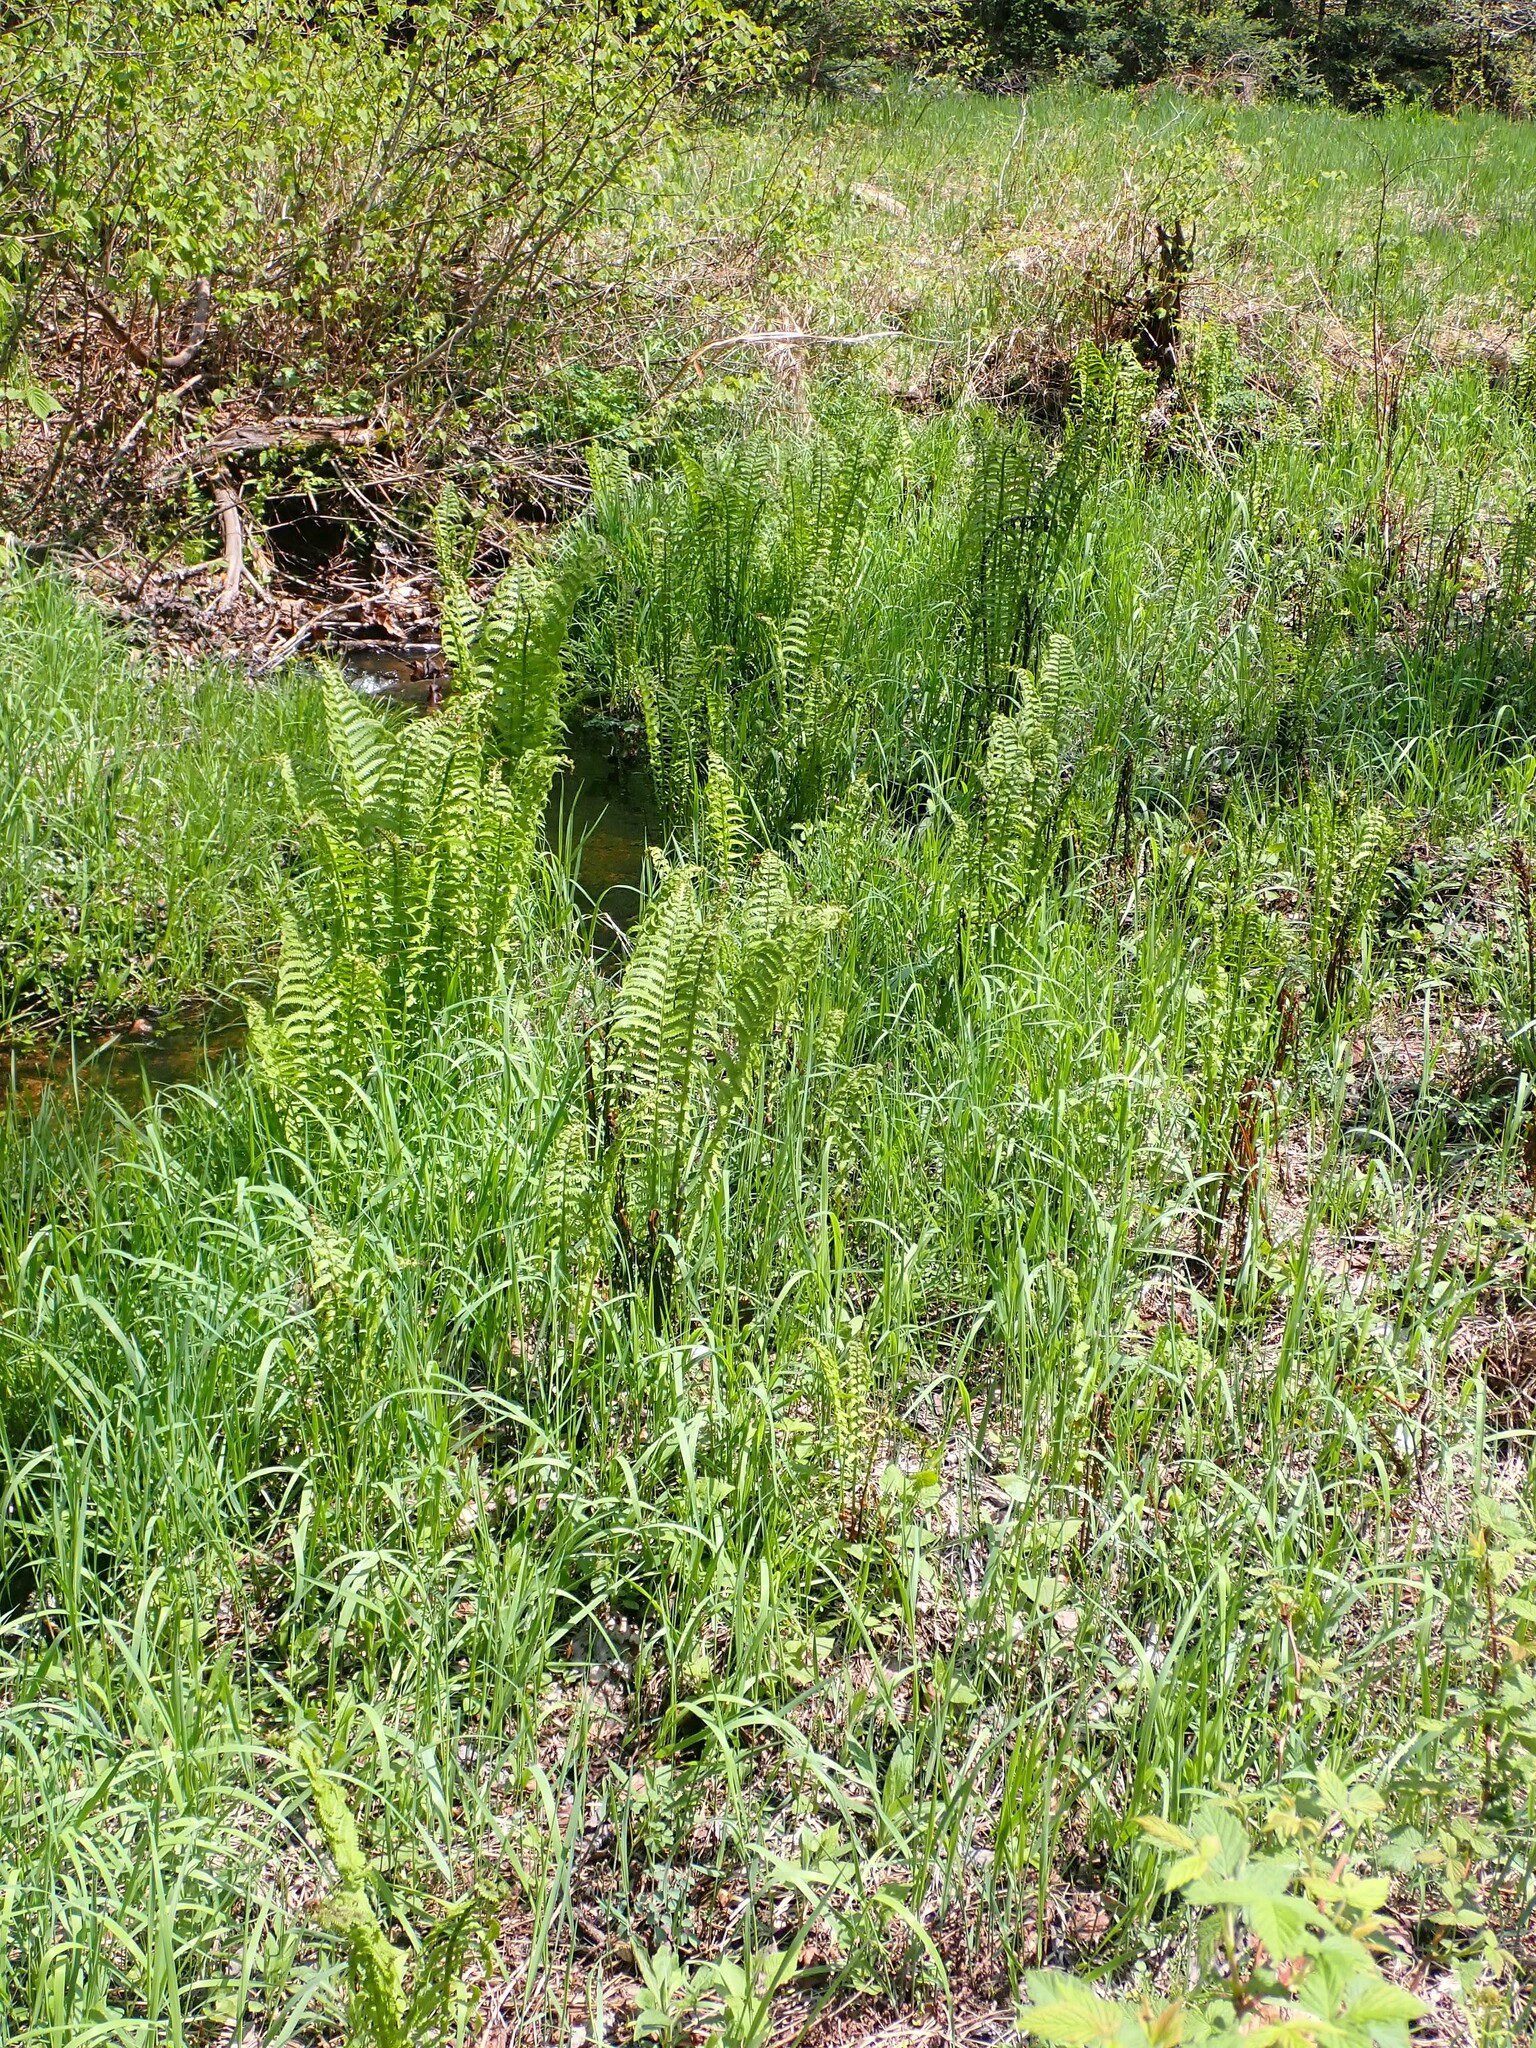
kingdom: Plantae
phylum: Tracheophyta
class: Polypodiopsida
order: Polypodiales
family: Onocleaceae
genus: Matteuccia
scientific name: Matteuccia struthiopteris
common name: Ostrich fern
